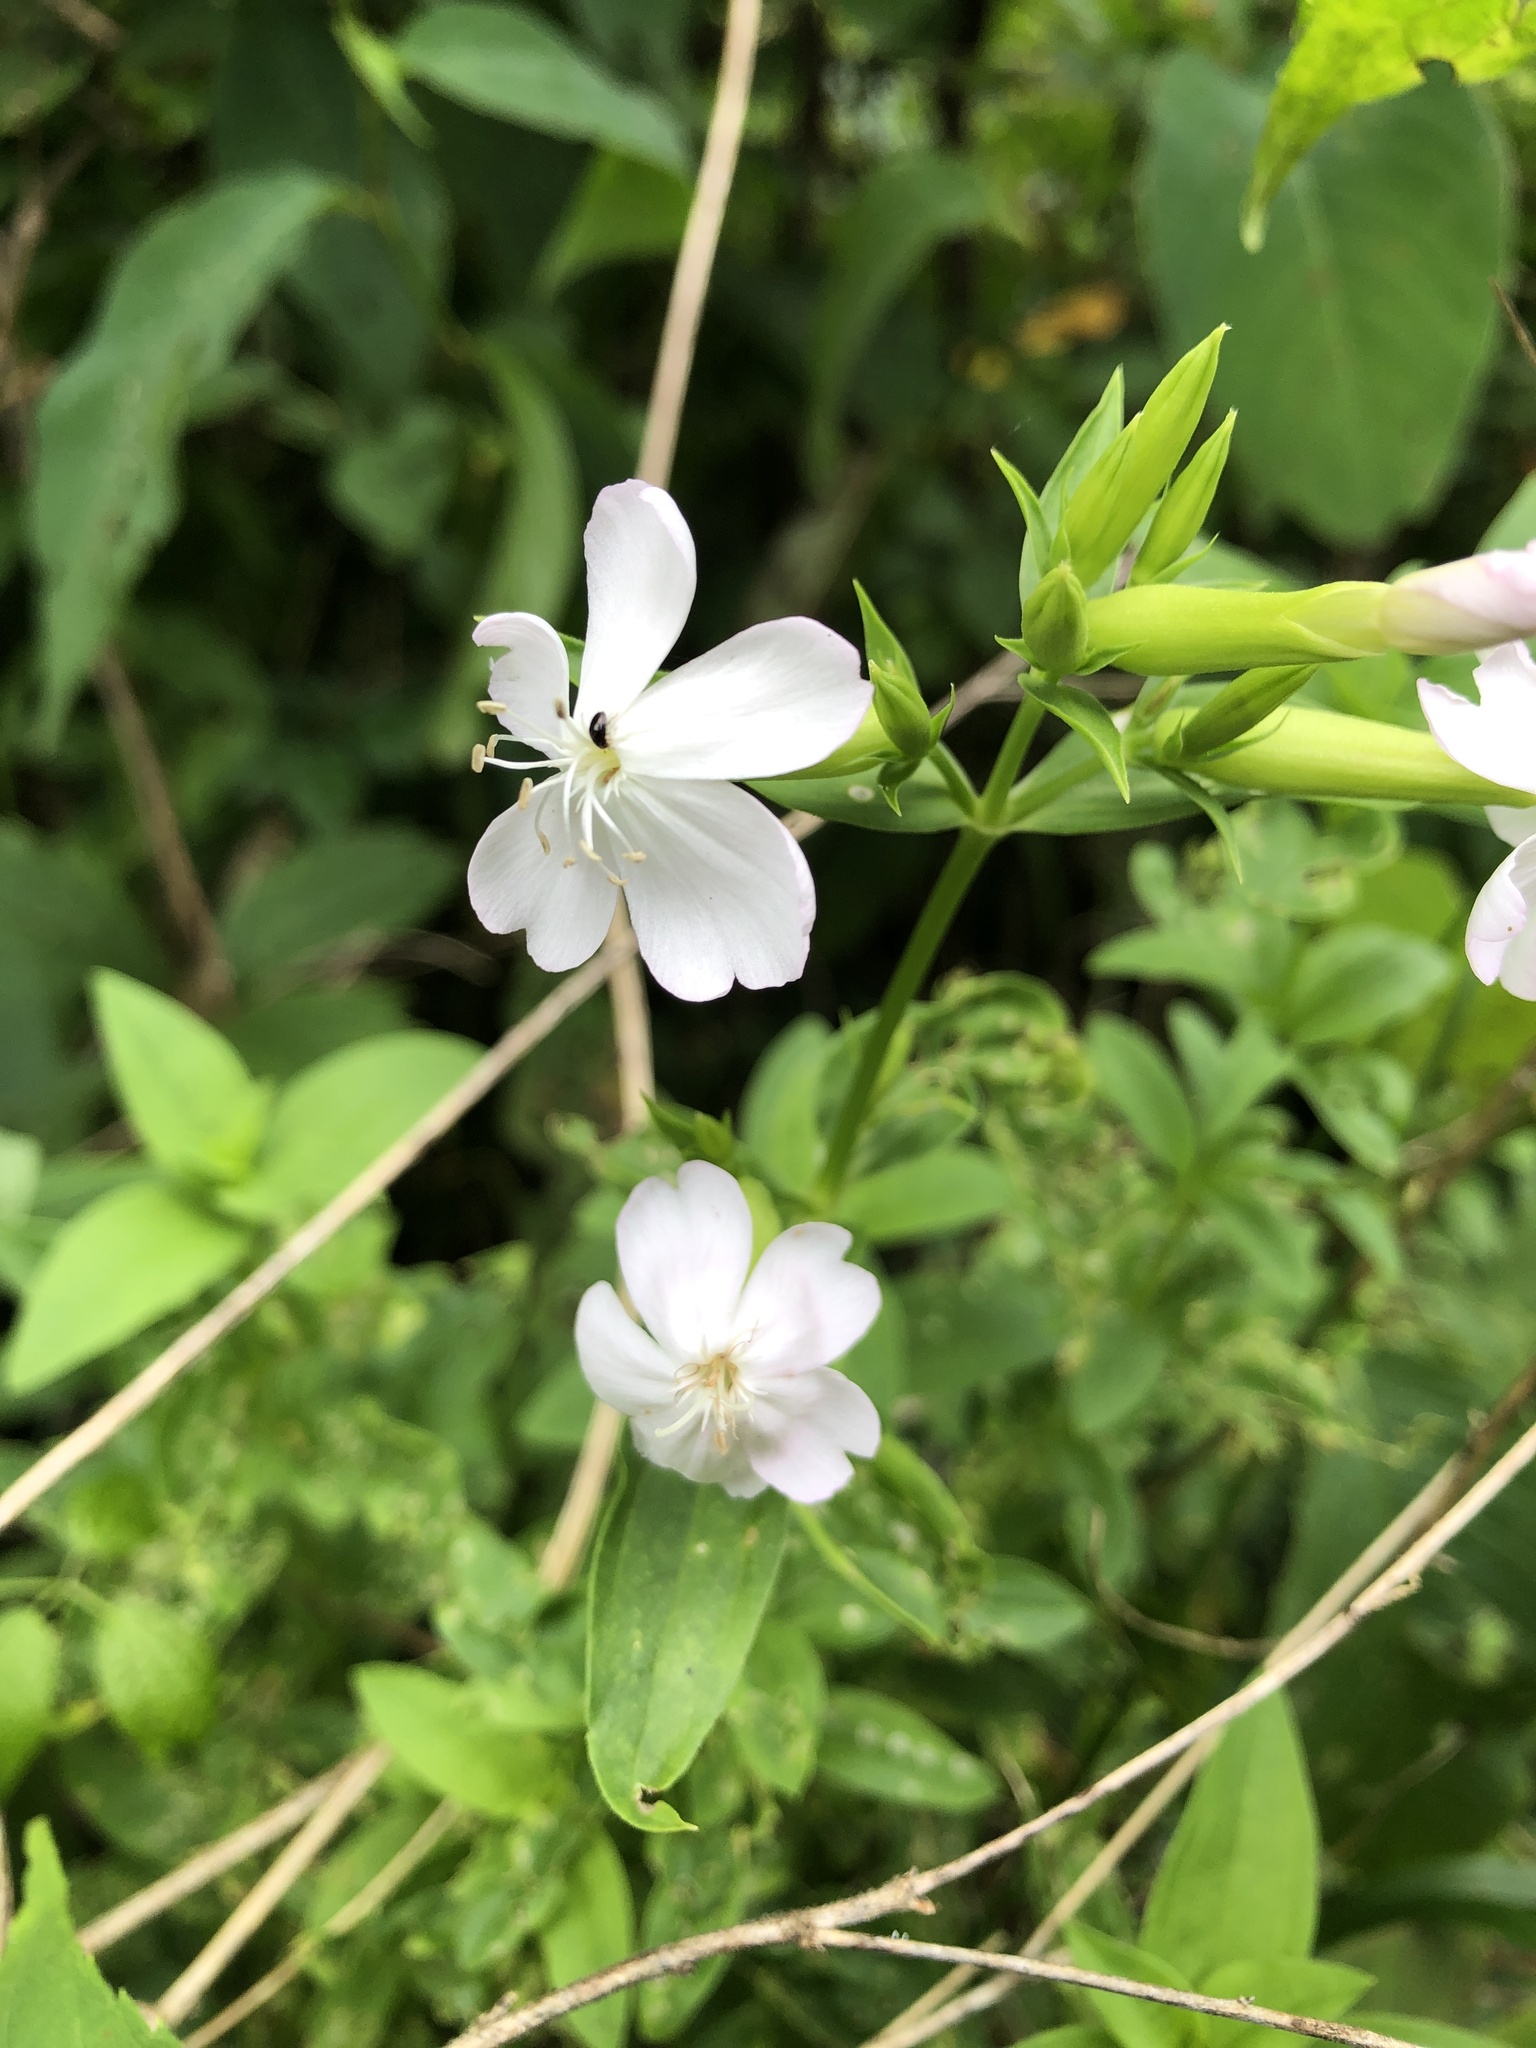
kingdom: Plantae
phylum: Tracheophyta
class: Magnoliopsida
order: Caryophyllales
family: Caryophyllaceae
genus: Saponaria
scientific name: Saponaria officinalis
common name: Soapwort
